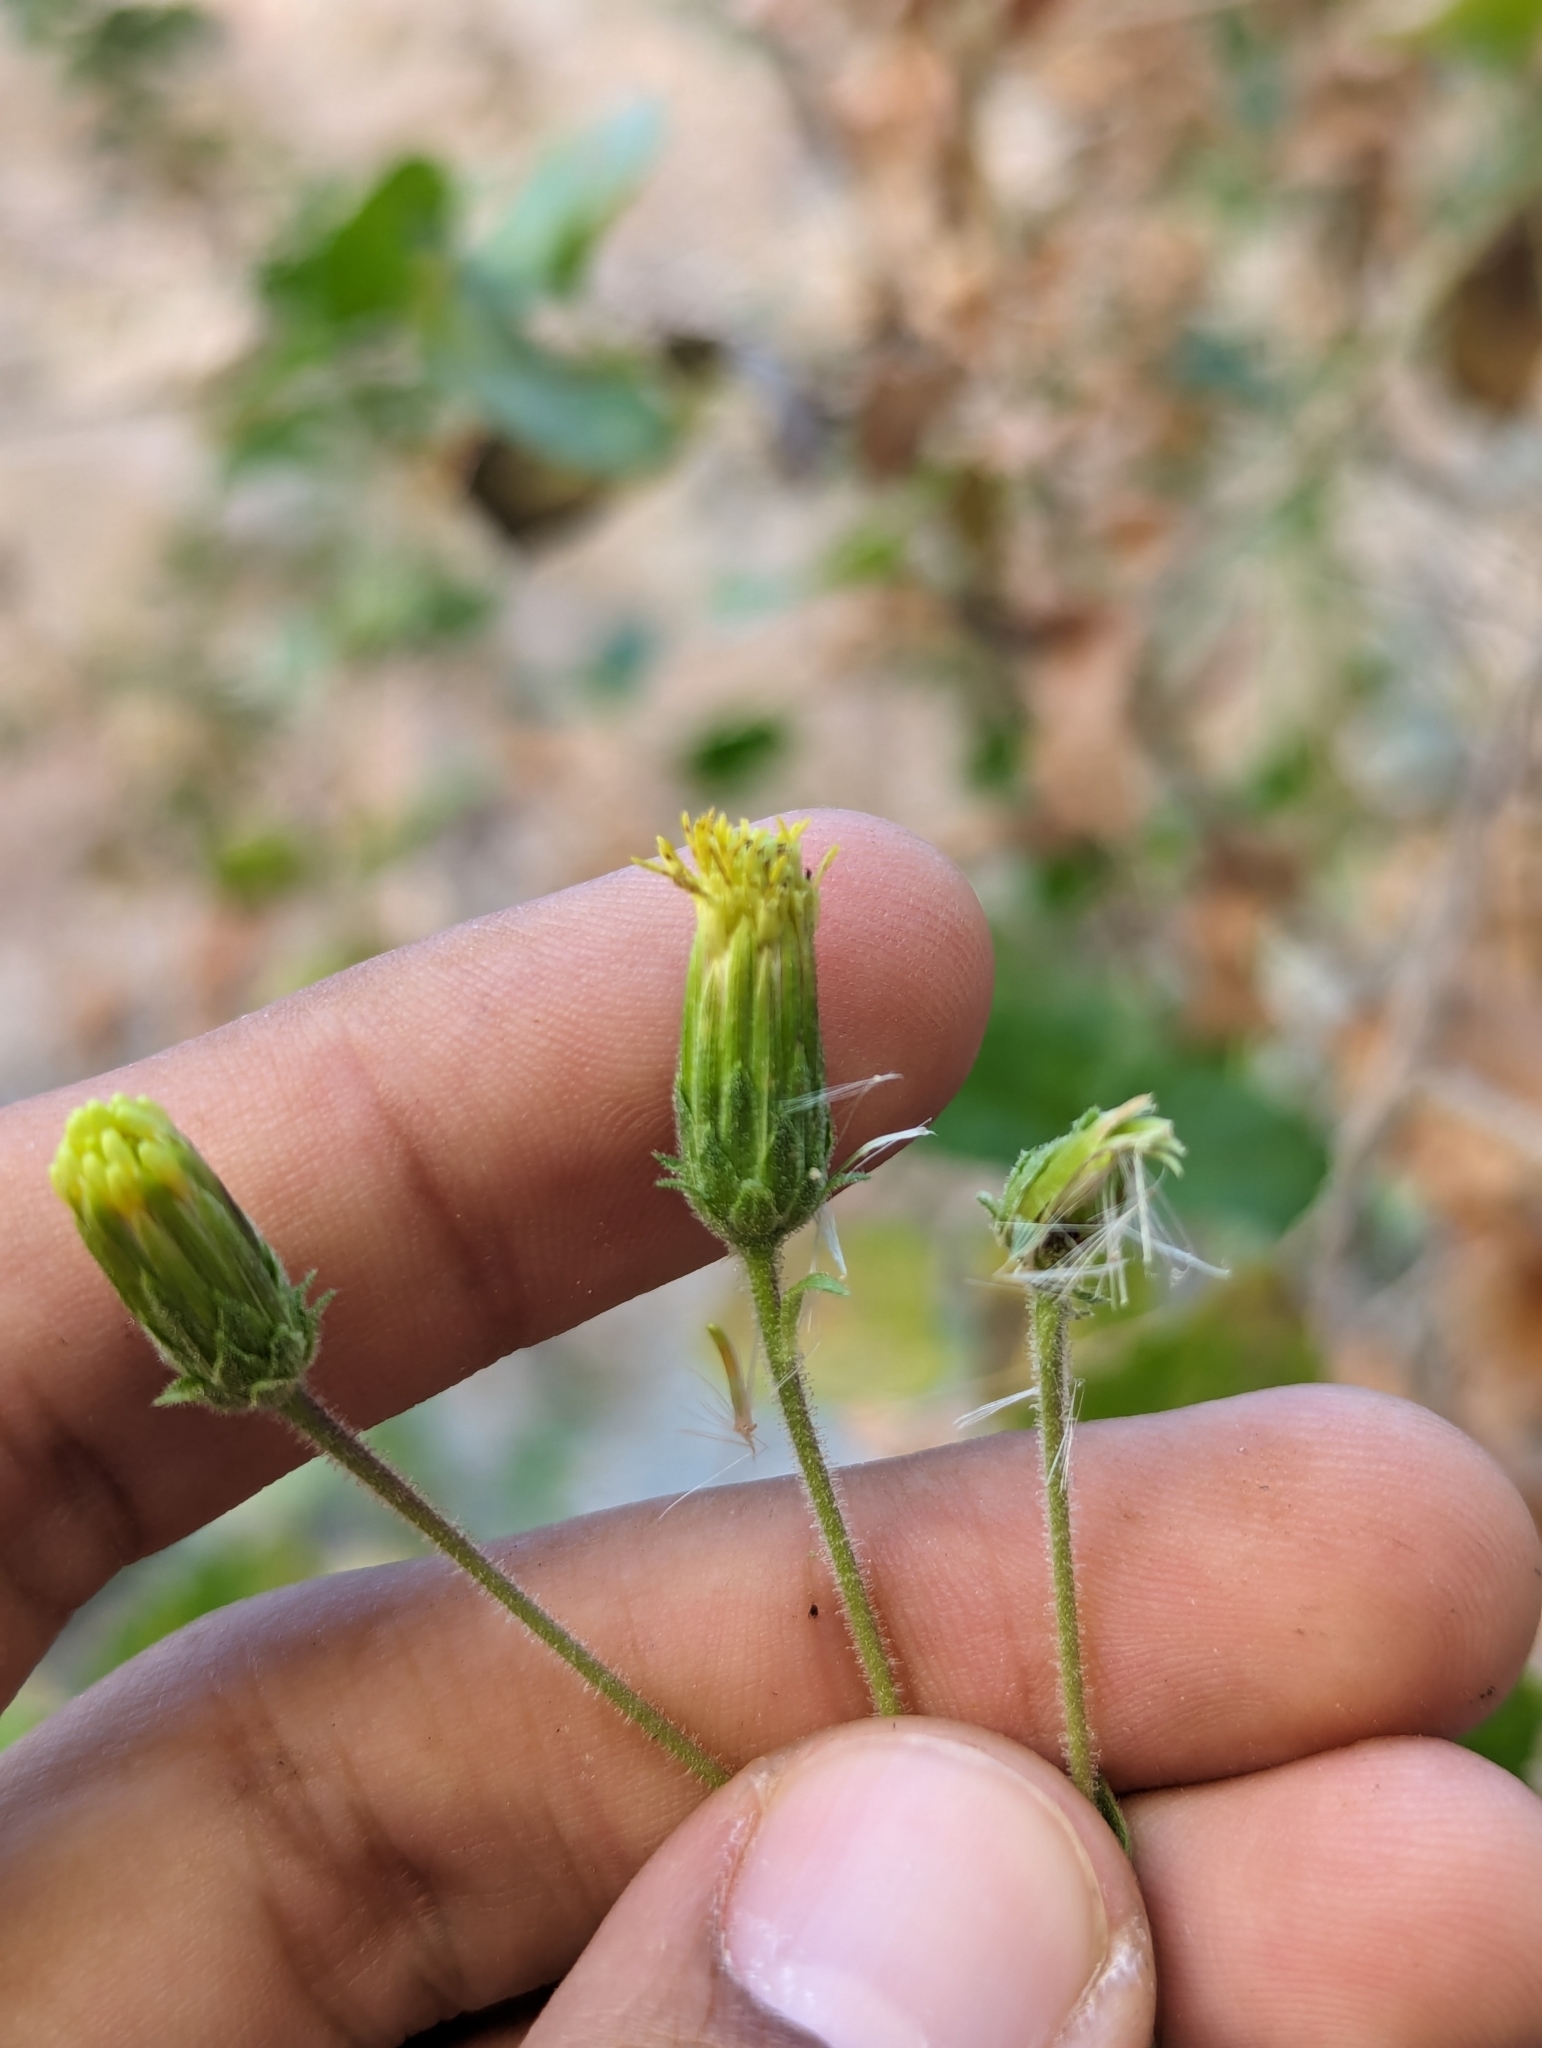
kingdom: Plantae
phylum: Tracheophyta
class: Magnoliopsida
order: Asterales
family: Asteraceae
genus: Brickellia
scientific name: Brickellia peninsularis
